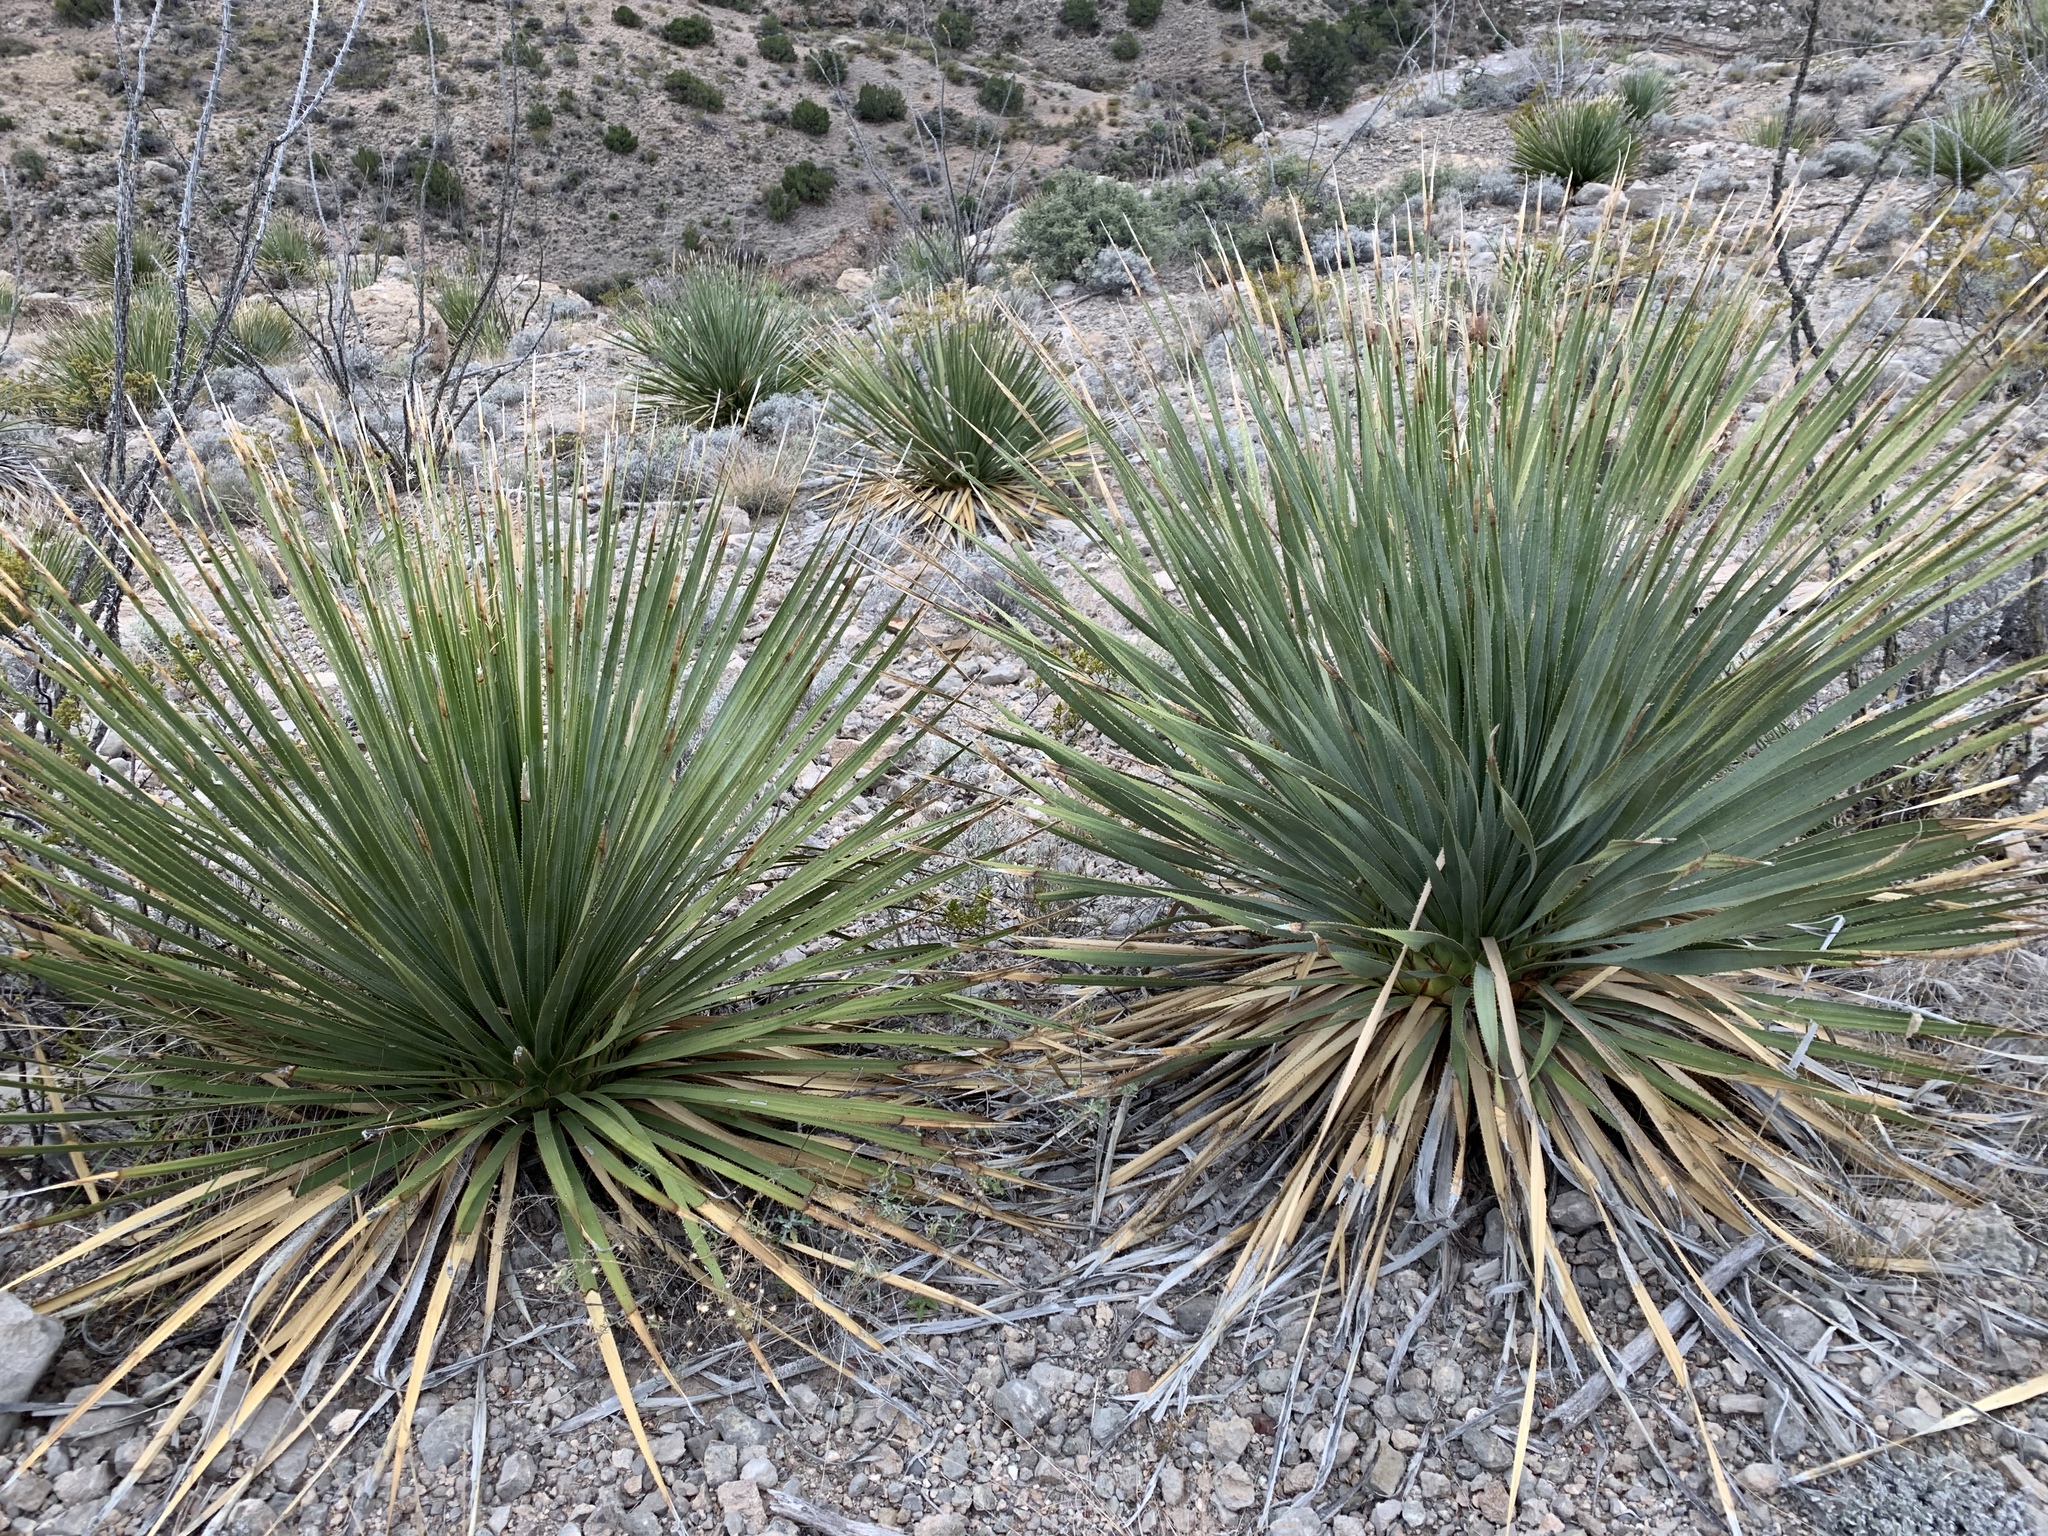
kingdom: Plantae
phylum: Tracheophyta
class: Liliopsida
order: Asparagales
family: Asparagaceae
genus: Dasylirion
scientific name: Dasylirion wheeleri
